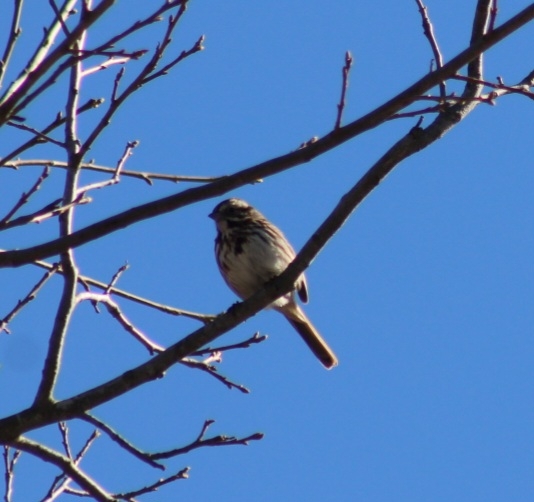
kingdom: Animalia
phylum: Chordata
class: Aves
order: Passeriformes
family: Passerellidae
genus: Melospiza
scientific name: Melospiza melodia
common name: Song sparrow
